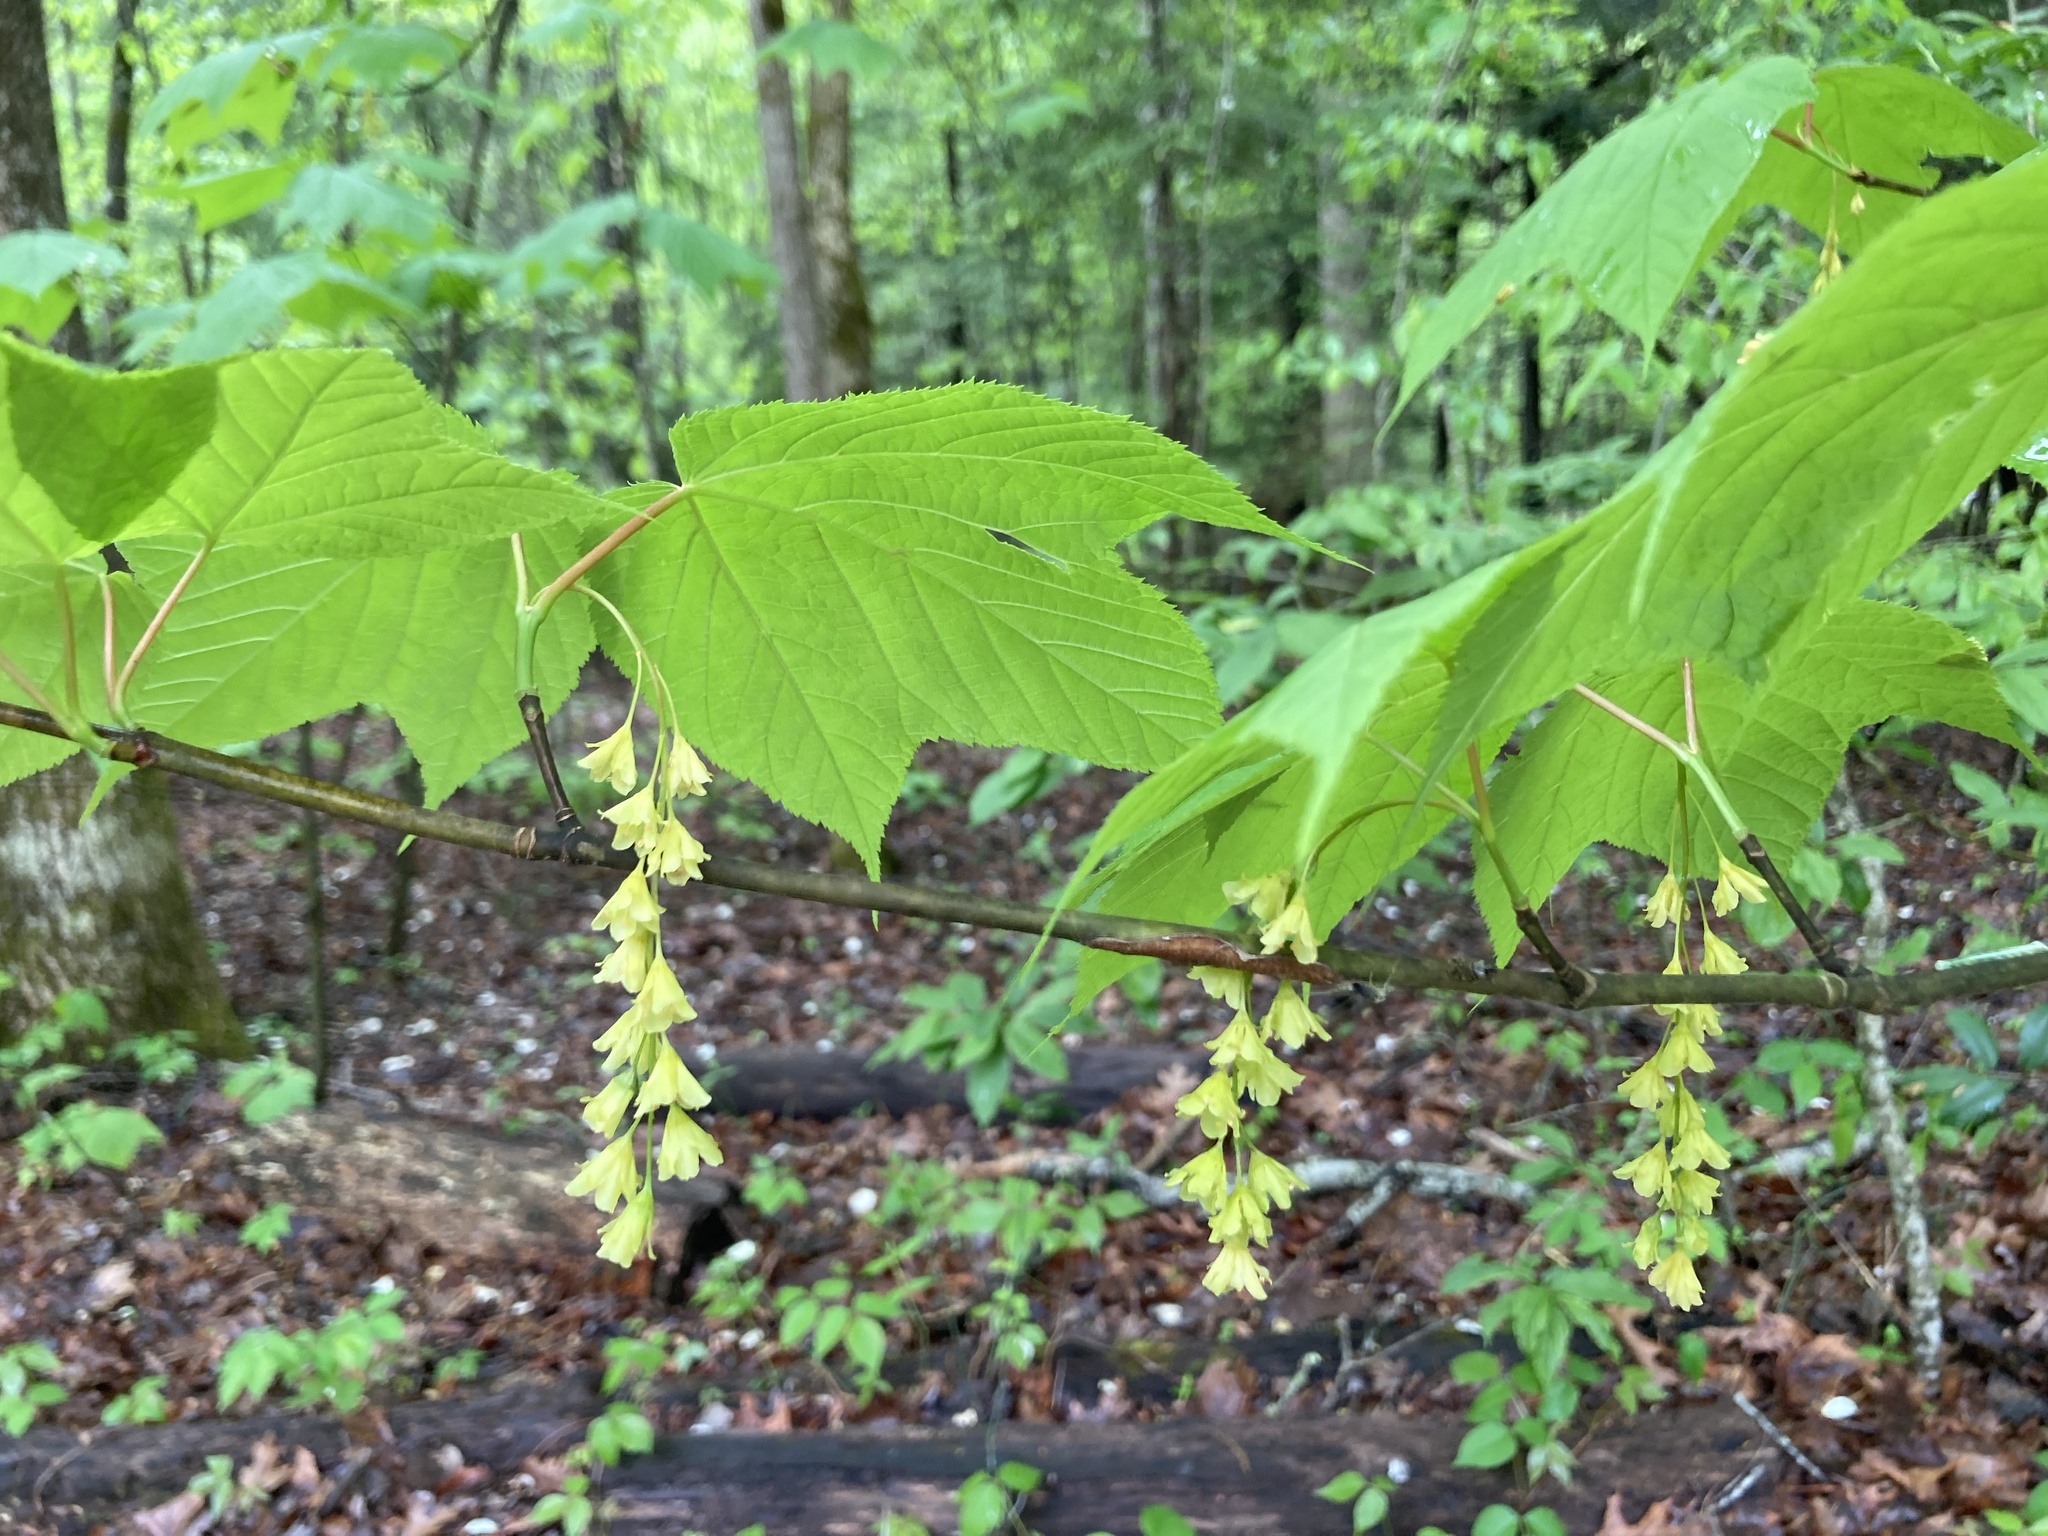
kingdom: Plantae
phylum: Tracheophyta
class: Magnoliopsida
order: Sapindales
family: Sapindaceae
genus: Acer
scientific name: Acer pensylvanicum
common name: Moosewood
